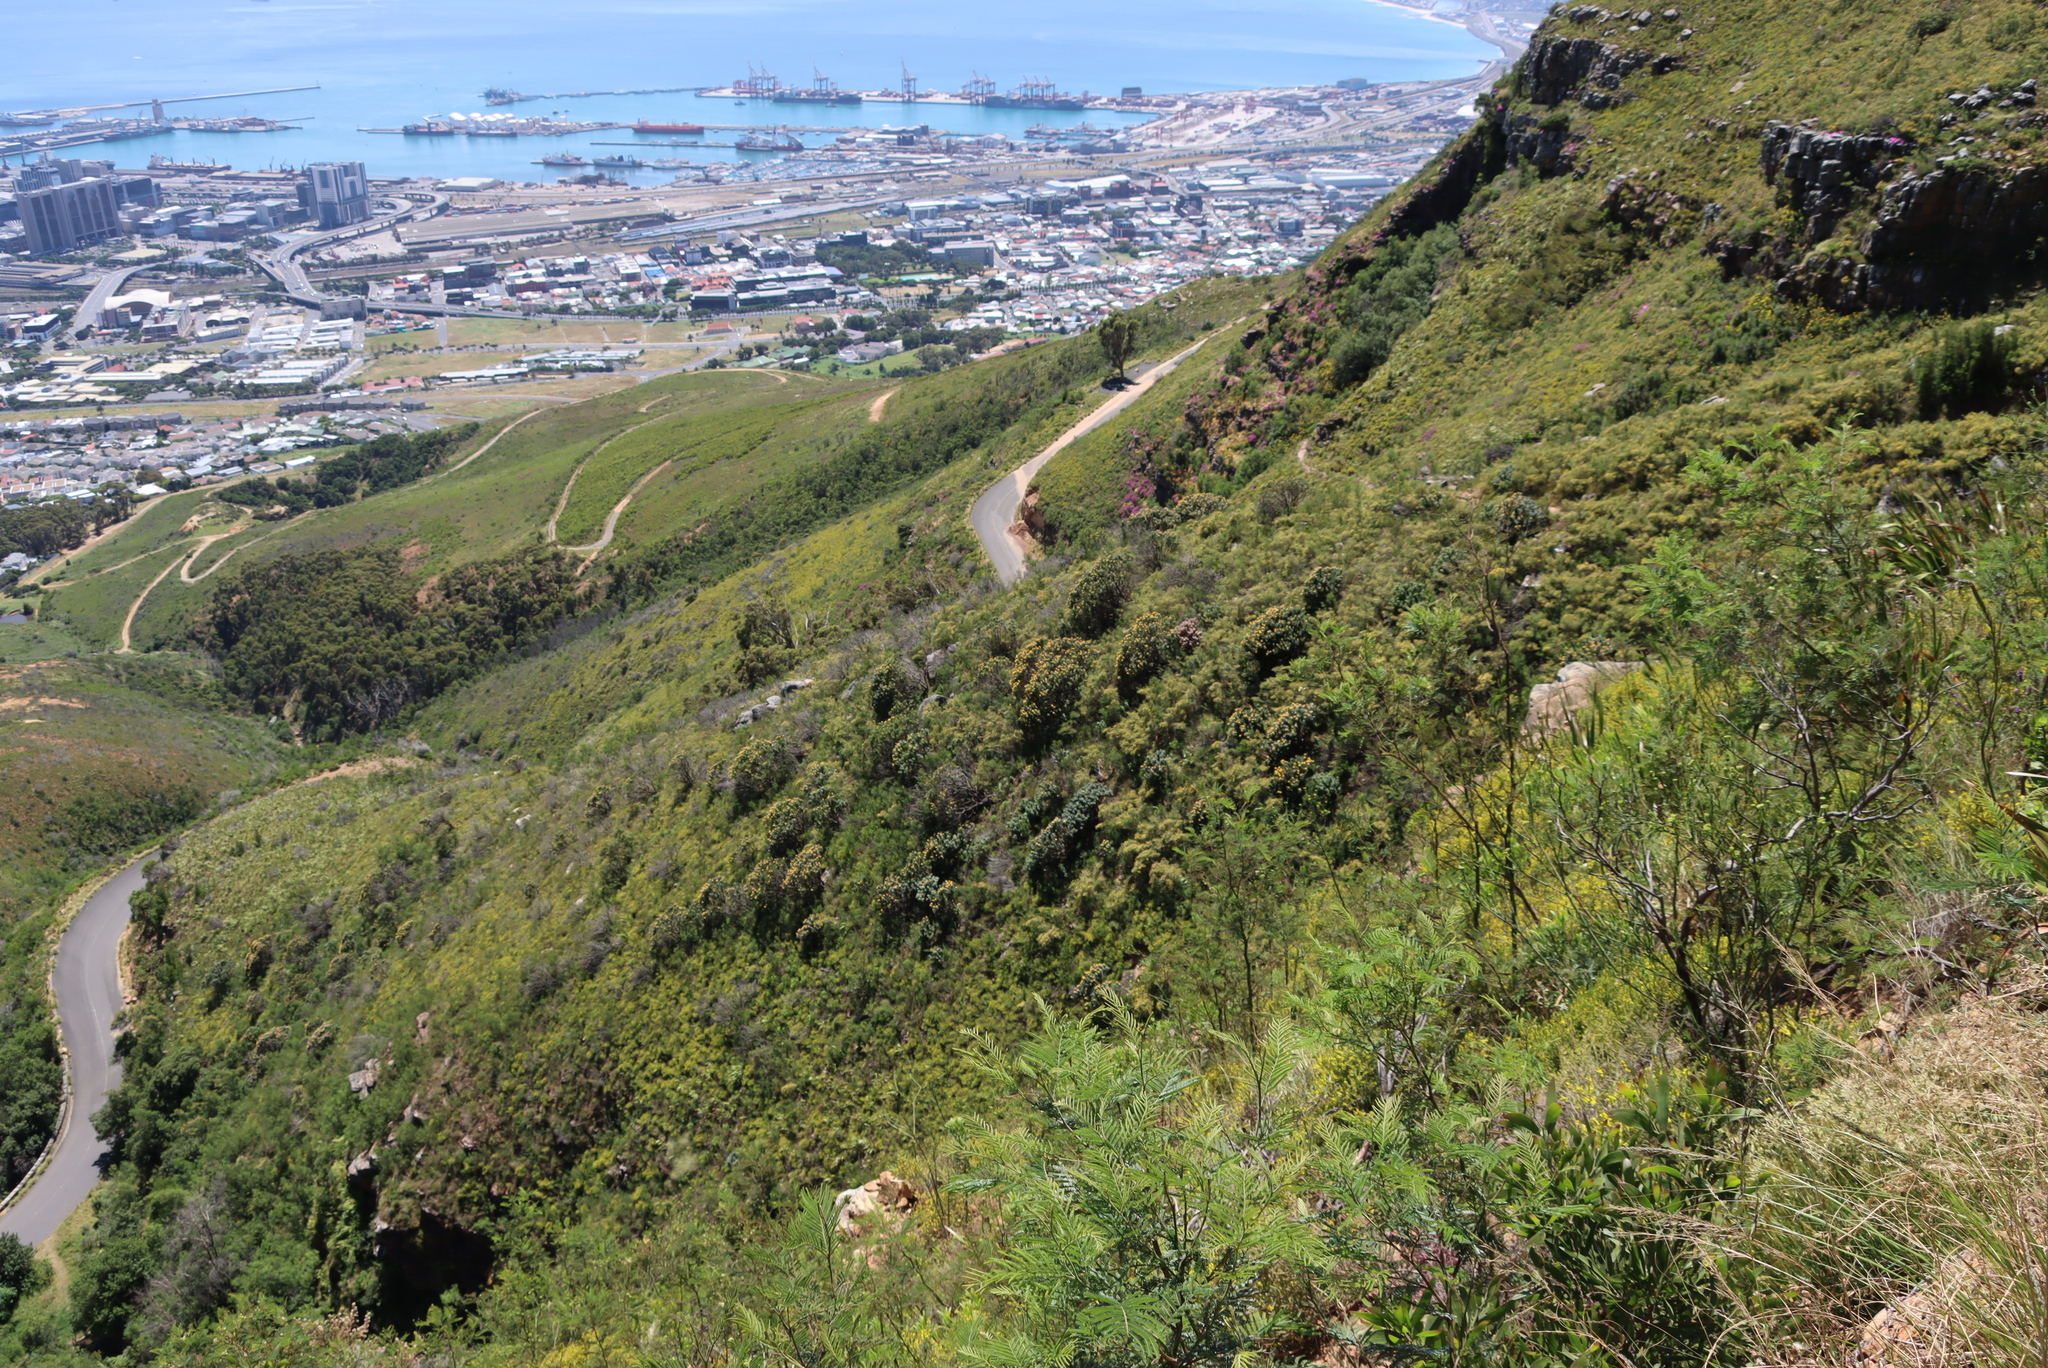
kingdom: Plantae
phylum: Tracheophyta
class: Magnoliopsida
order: Proteales
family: Proteaceae
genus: Leucospermum
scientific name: Leucospermum conocarpodendron
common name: Tree pincushion
